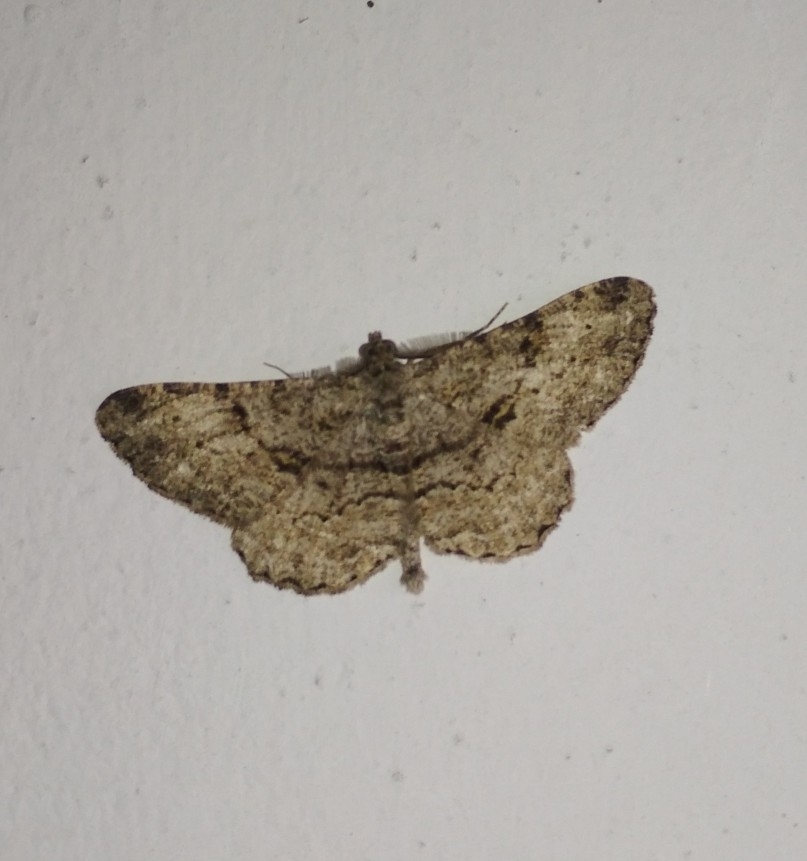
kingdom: Animalia
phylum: Arthropoda
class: Insecta
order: Lepidoptera
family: Geometridae
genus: Peribatodes
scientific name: Peribatodes rhomboidaria
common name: Willow beauty
